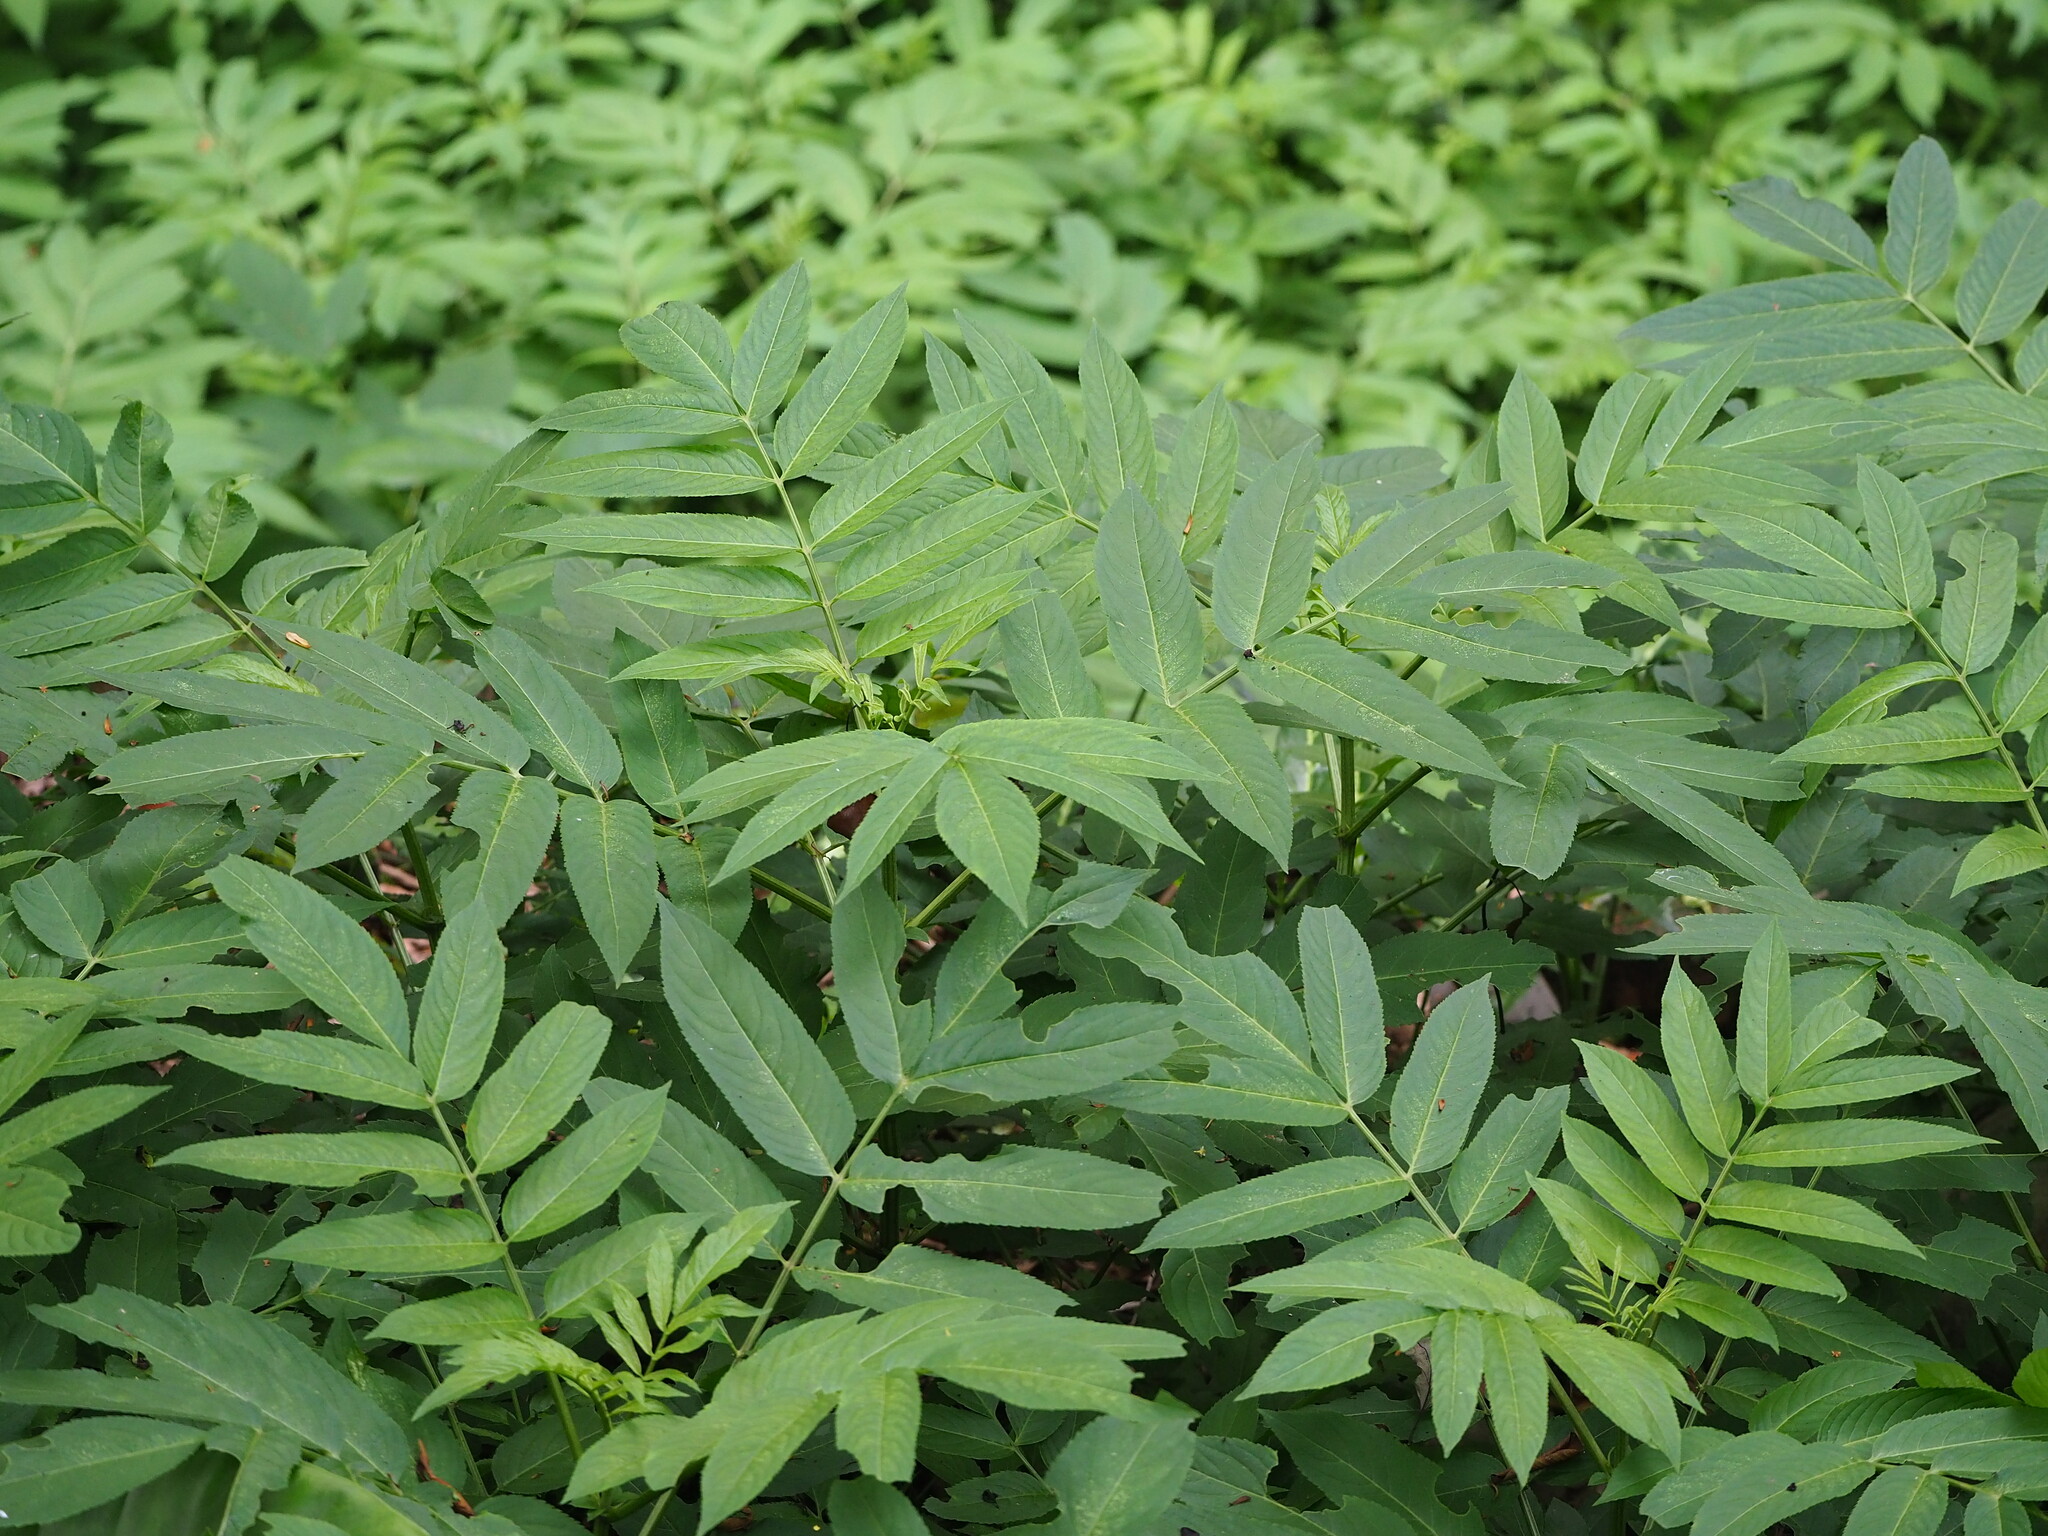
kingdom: Plantae
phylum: Tracheophyta
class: Magnoliopsida
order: Dipsacales
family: Viburnaceae
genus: Sambucus
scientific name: Sambucus javanica
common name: Chinese elder
